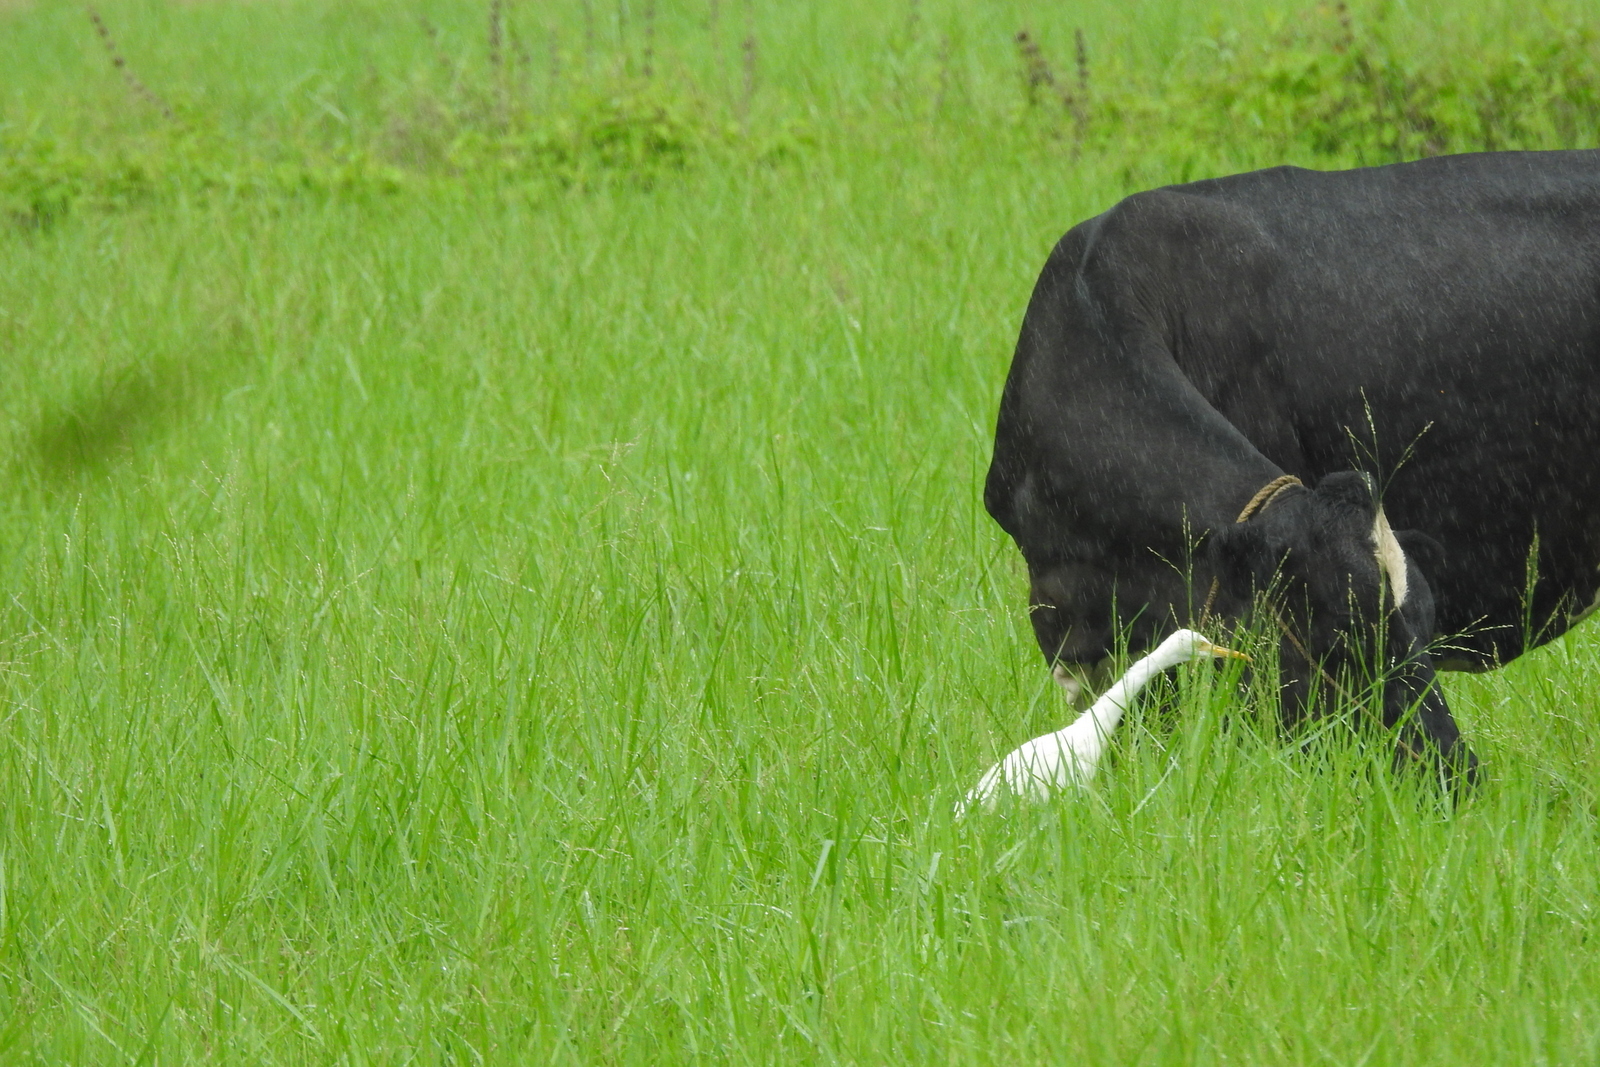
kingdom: Animalia
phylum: Chordata
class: Aves
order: Pelecaniformes
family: Ardeidae
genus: Bubulcus
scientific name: Bubulcus coromandus
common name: Eastern cattle egret
